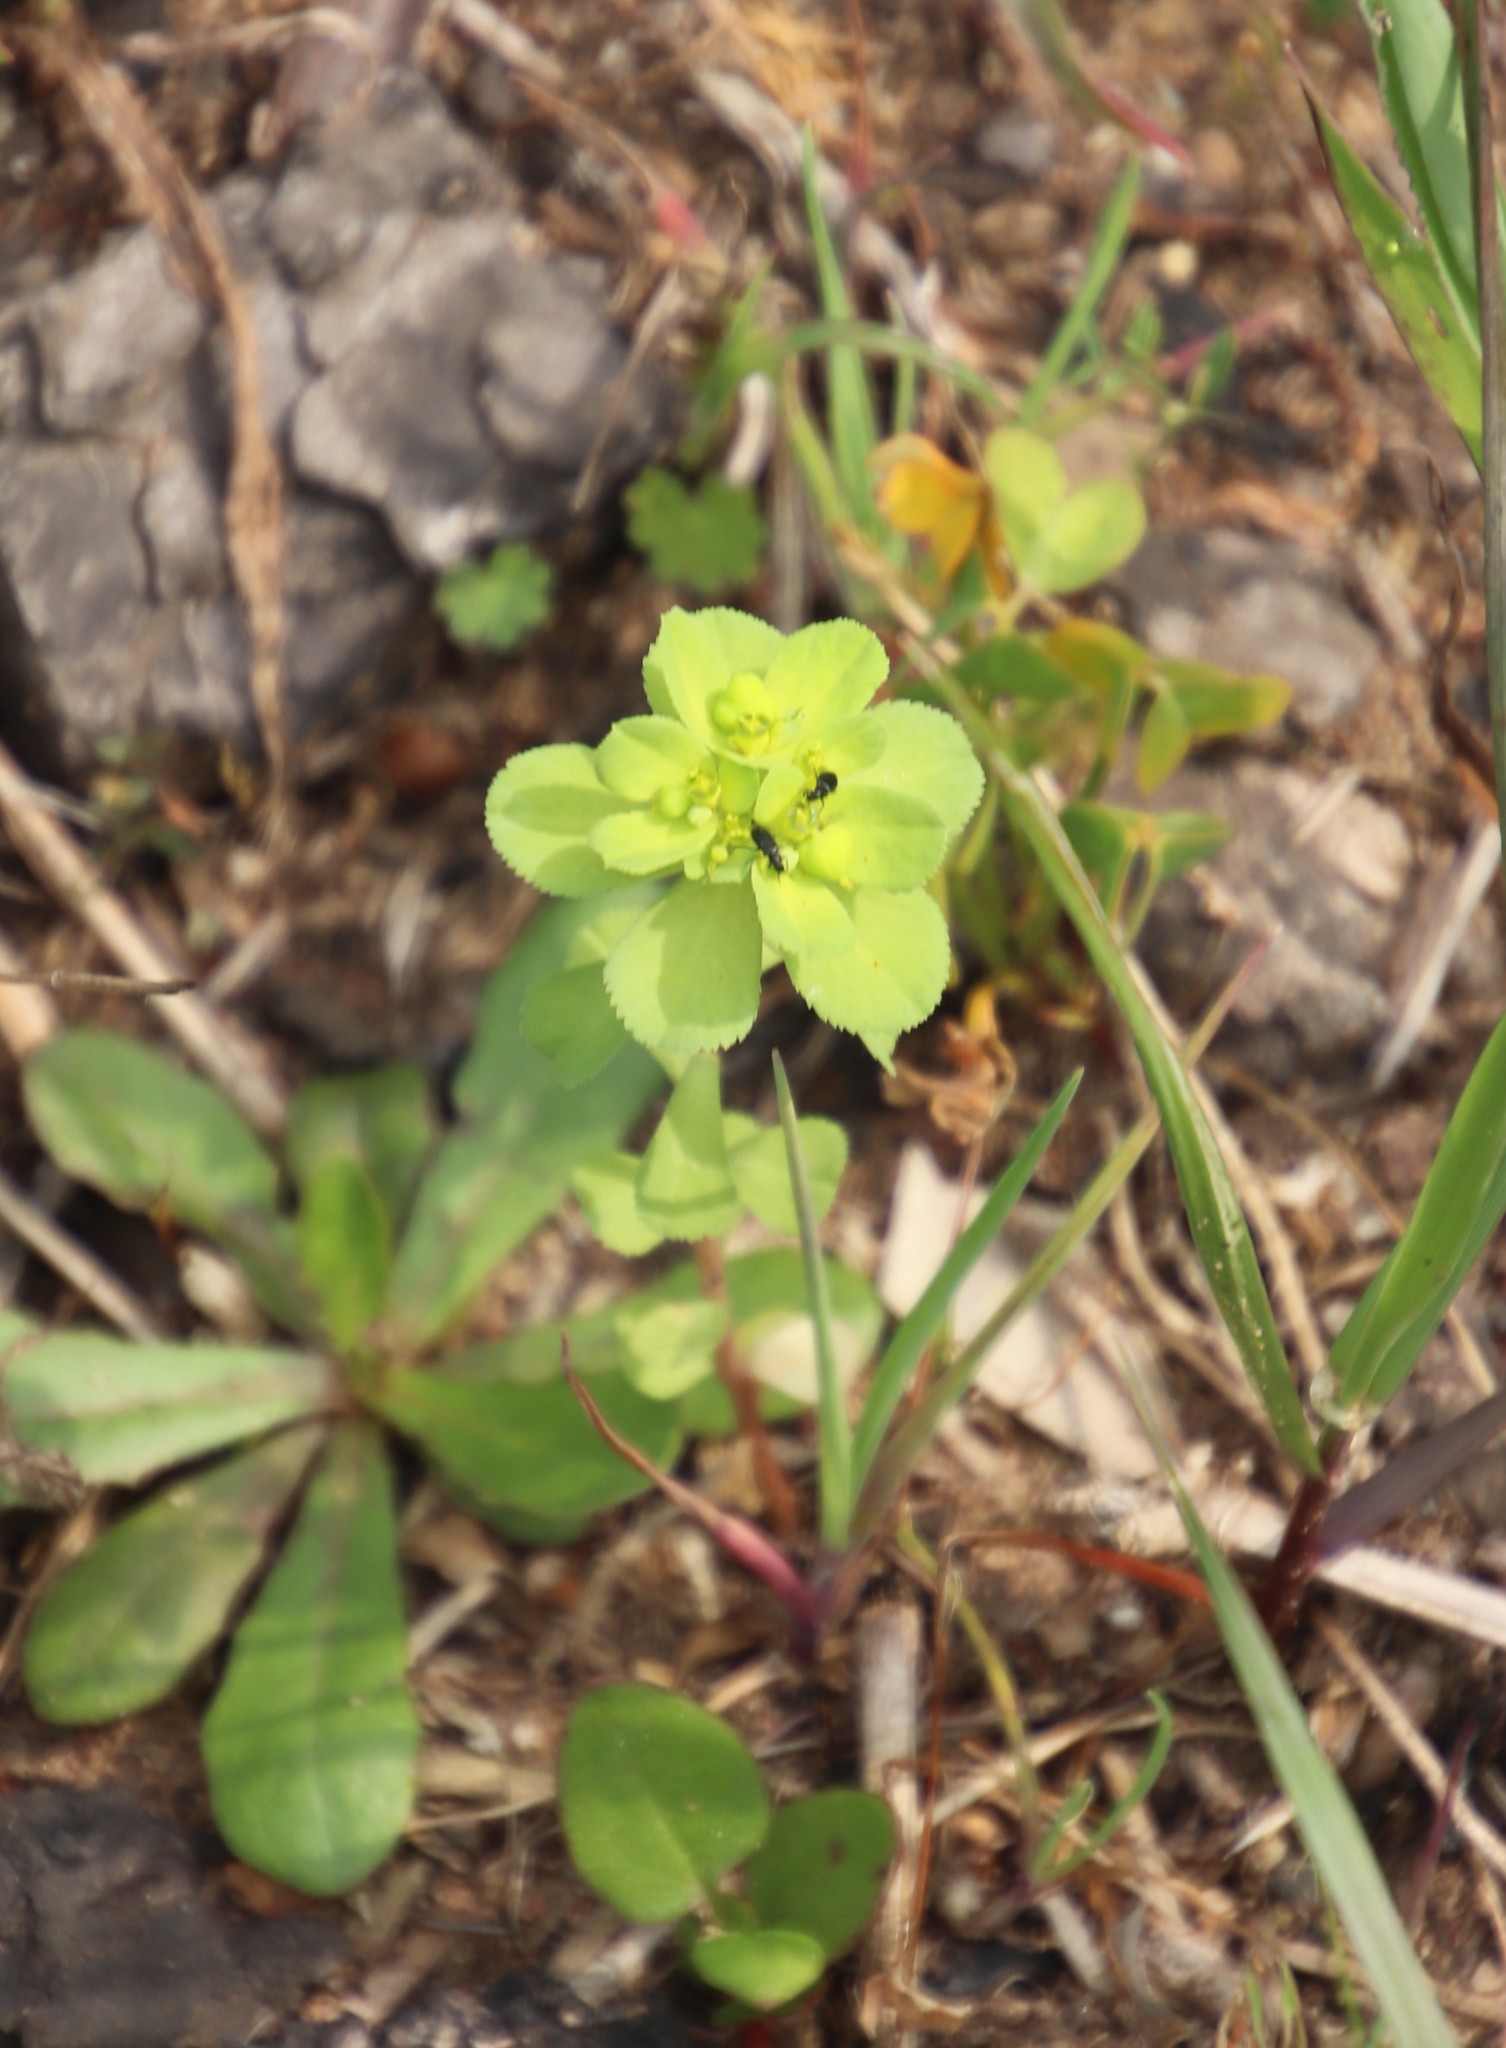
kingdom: Plantae
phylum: Tracheophyta
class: Magnoliopsida
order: Malpighiales
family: Euphorbiaceae
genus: Euphorbia
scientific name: Euphorbia helioscopia
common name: Sun spurge
